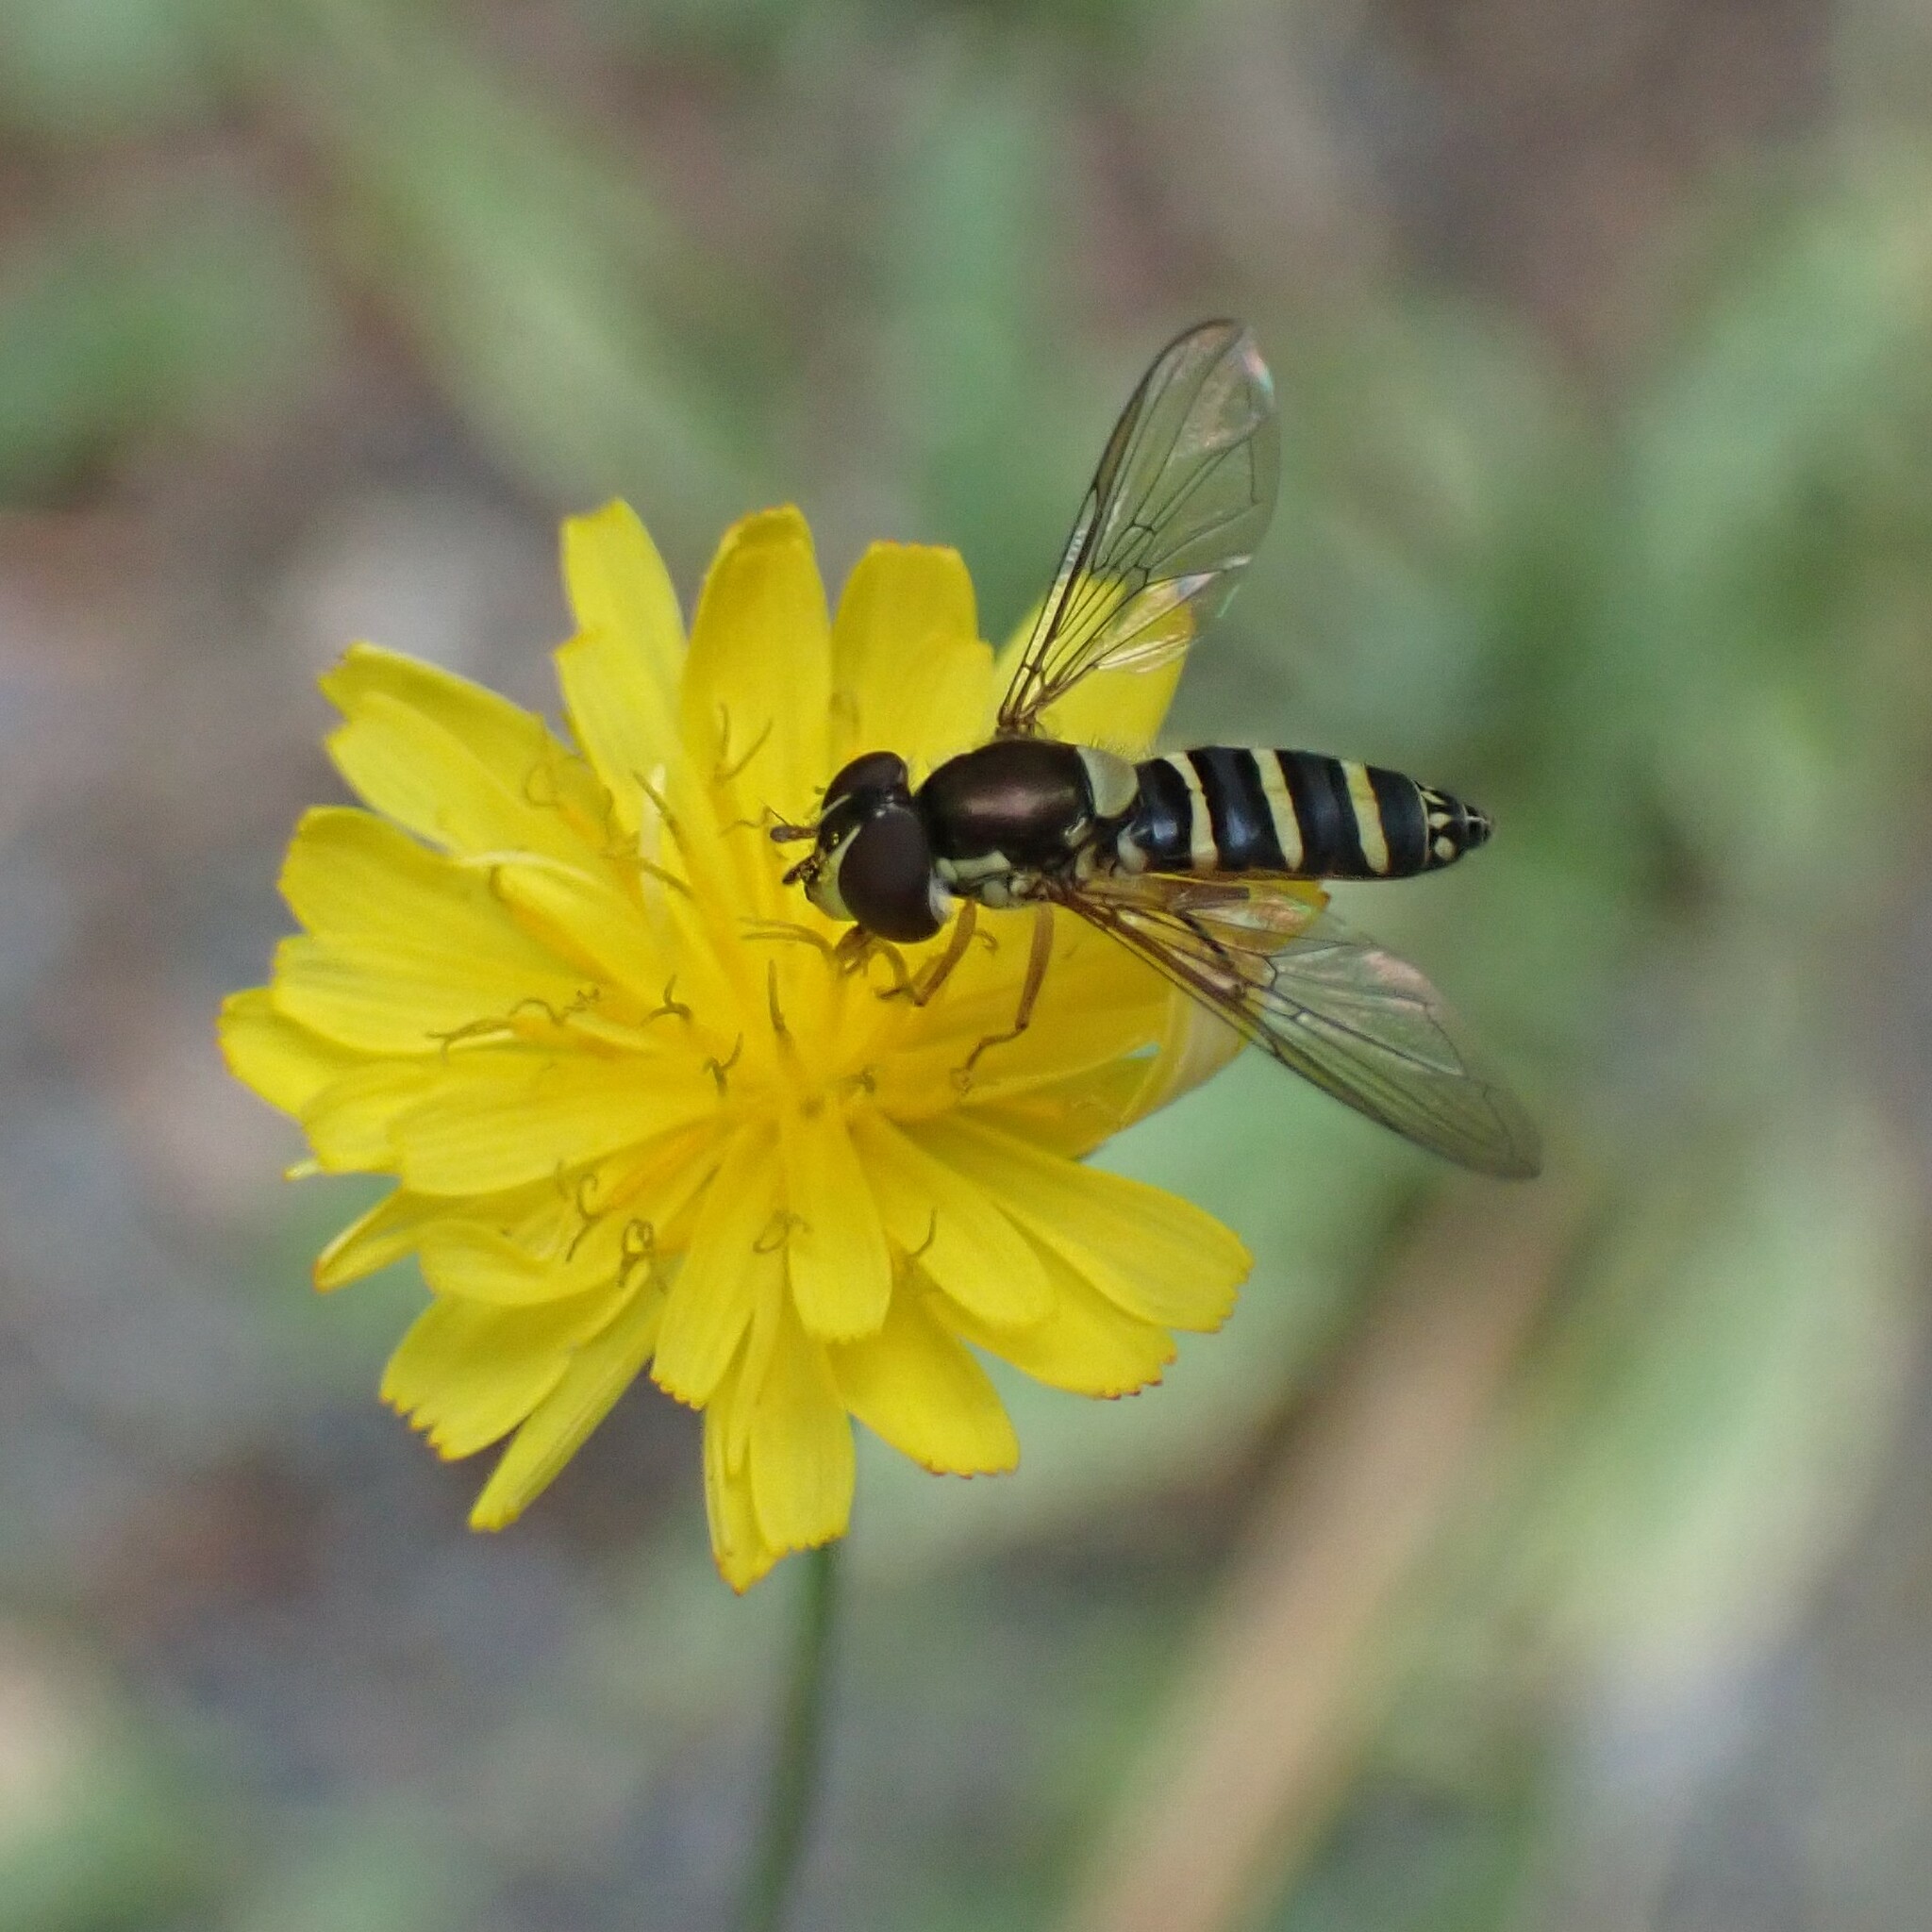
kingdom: Animalia
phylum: Arthropoda
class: Insecta
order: Diptera
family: Syrphidae
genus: Fazia
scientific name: Fazia micrura
